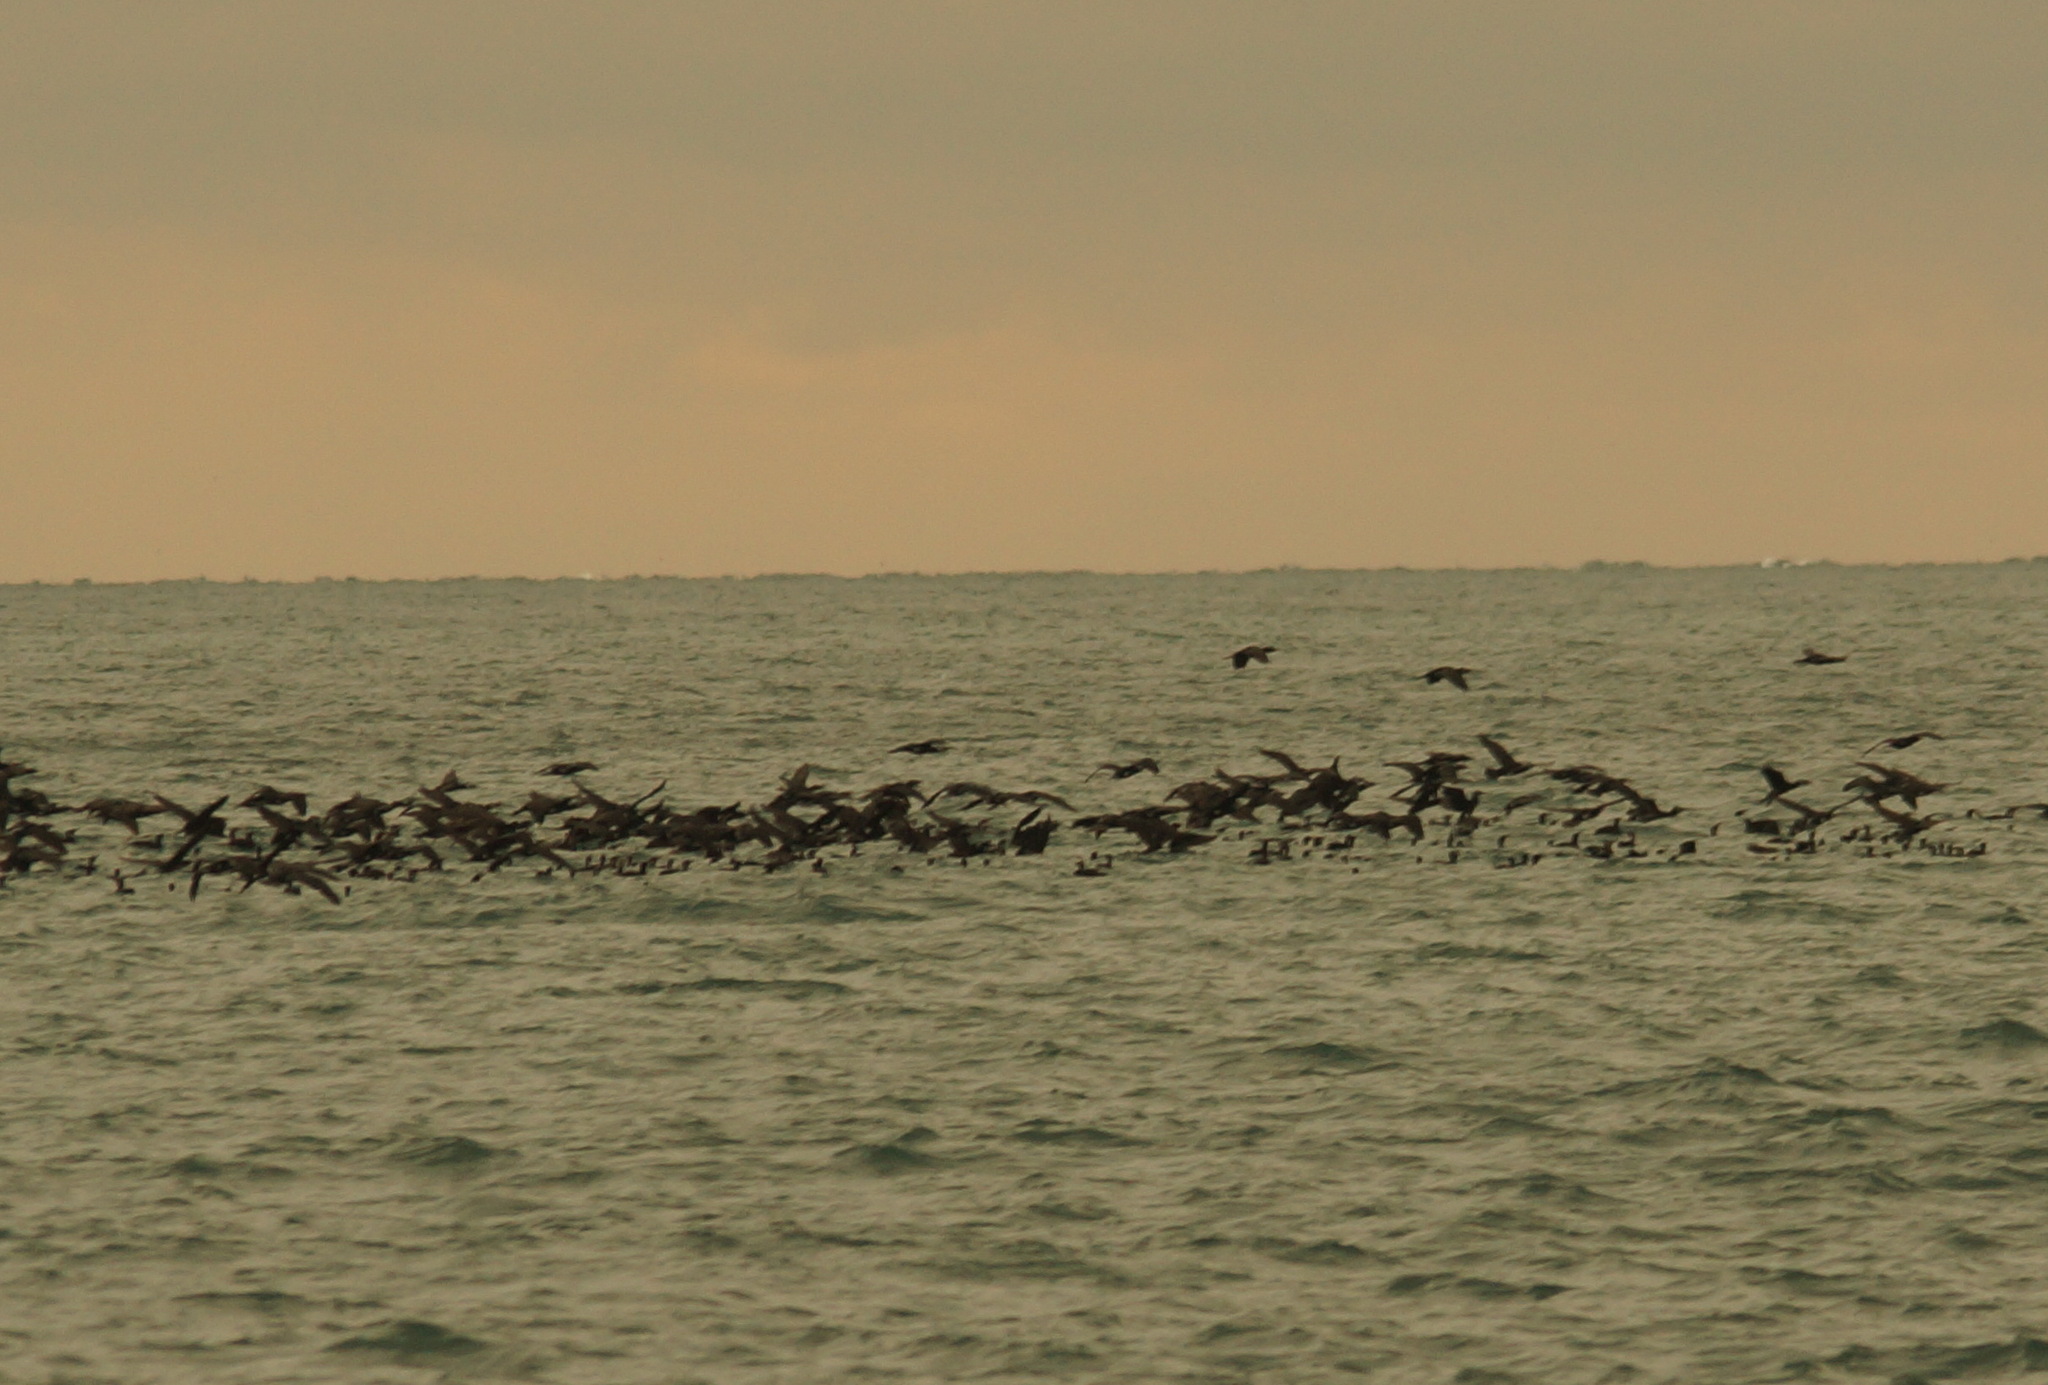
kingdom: Animalia
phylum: Chordata
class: Aves
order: Suliformes
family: Phalacrocoracidae
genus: Phalacrocorax
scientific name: Phalacrocorax carbo
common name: Great cormorant
